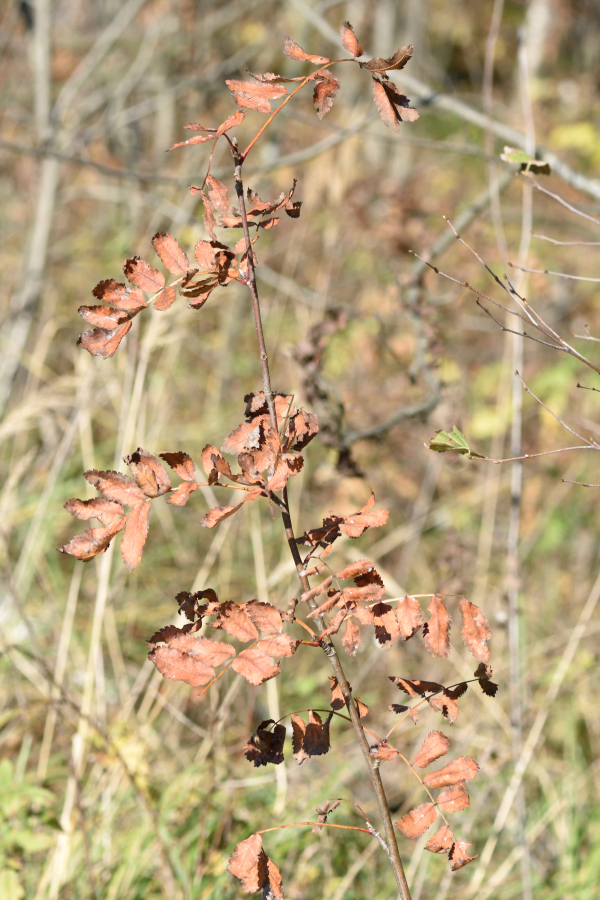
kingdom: Plantae
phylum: Tracheophyta
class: Magnoliopsida
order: Rosales
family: Rosaceae
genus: Sorbus
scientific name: Sorbus aucuparia
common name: Rowan
